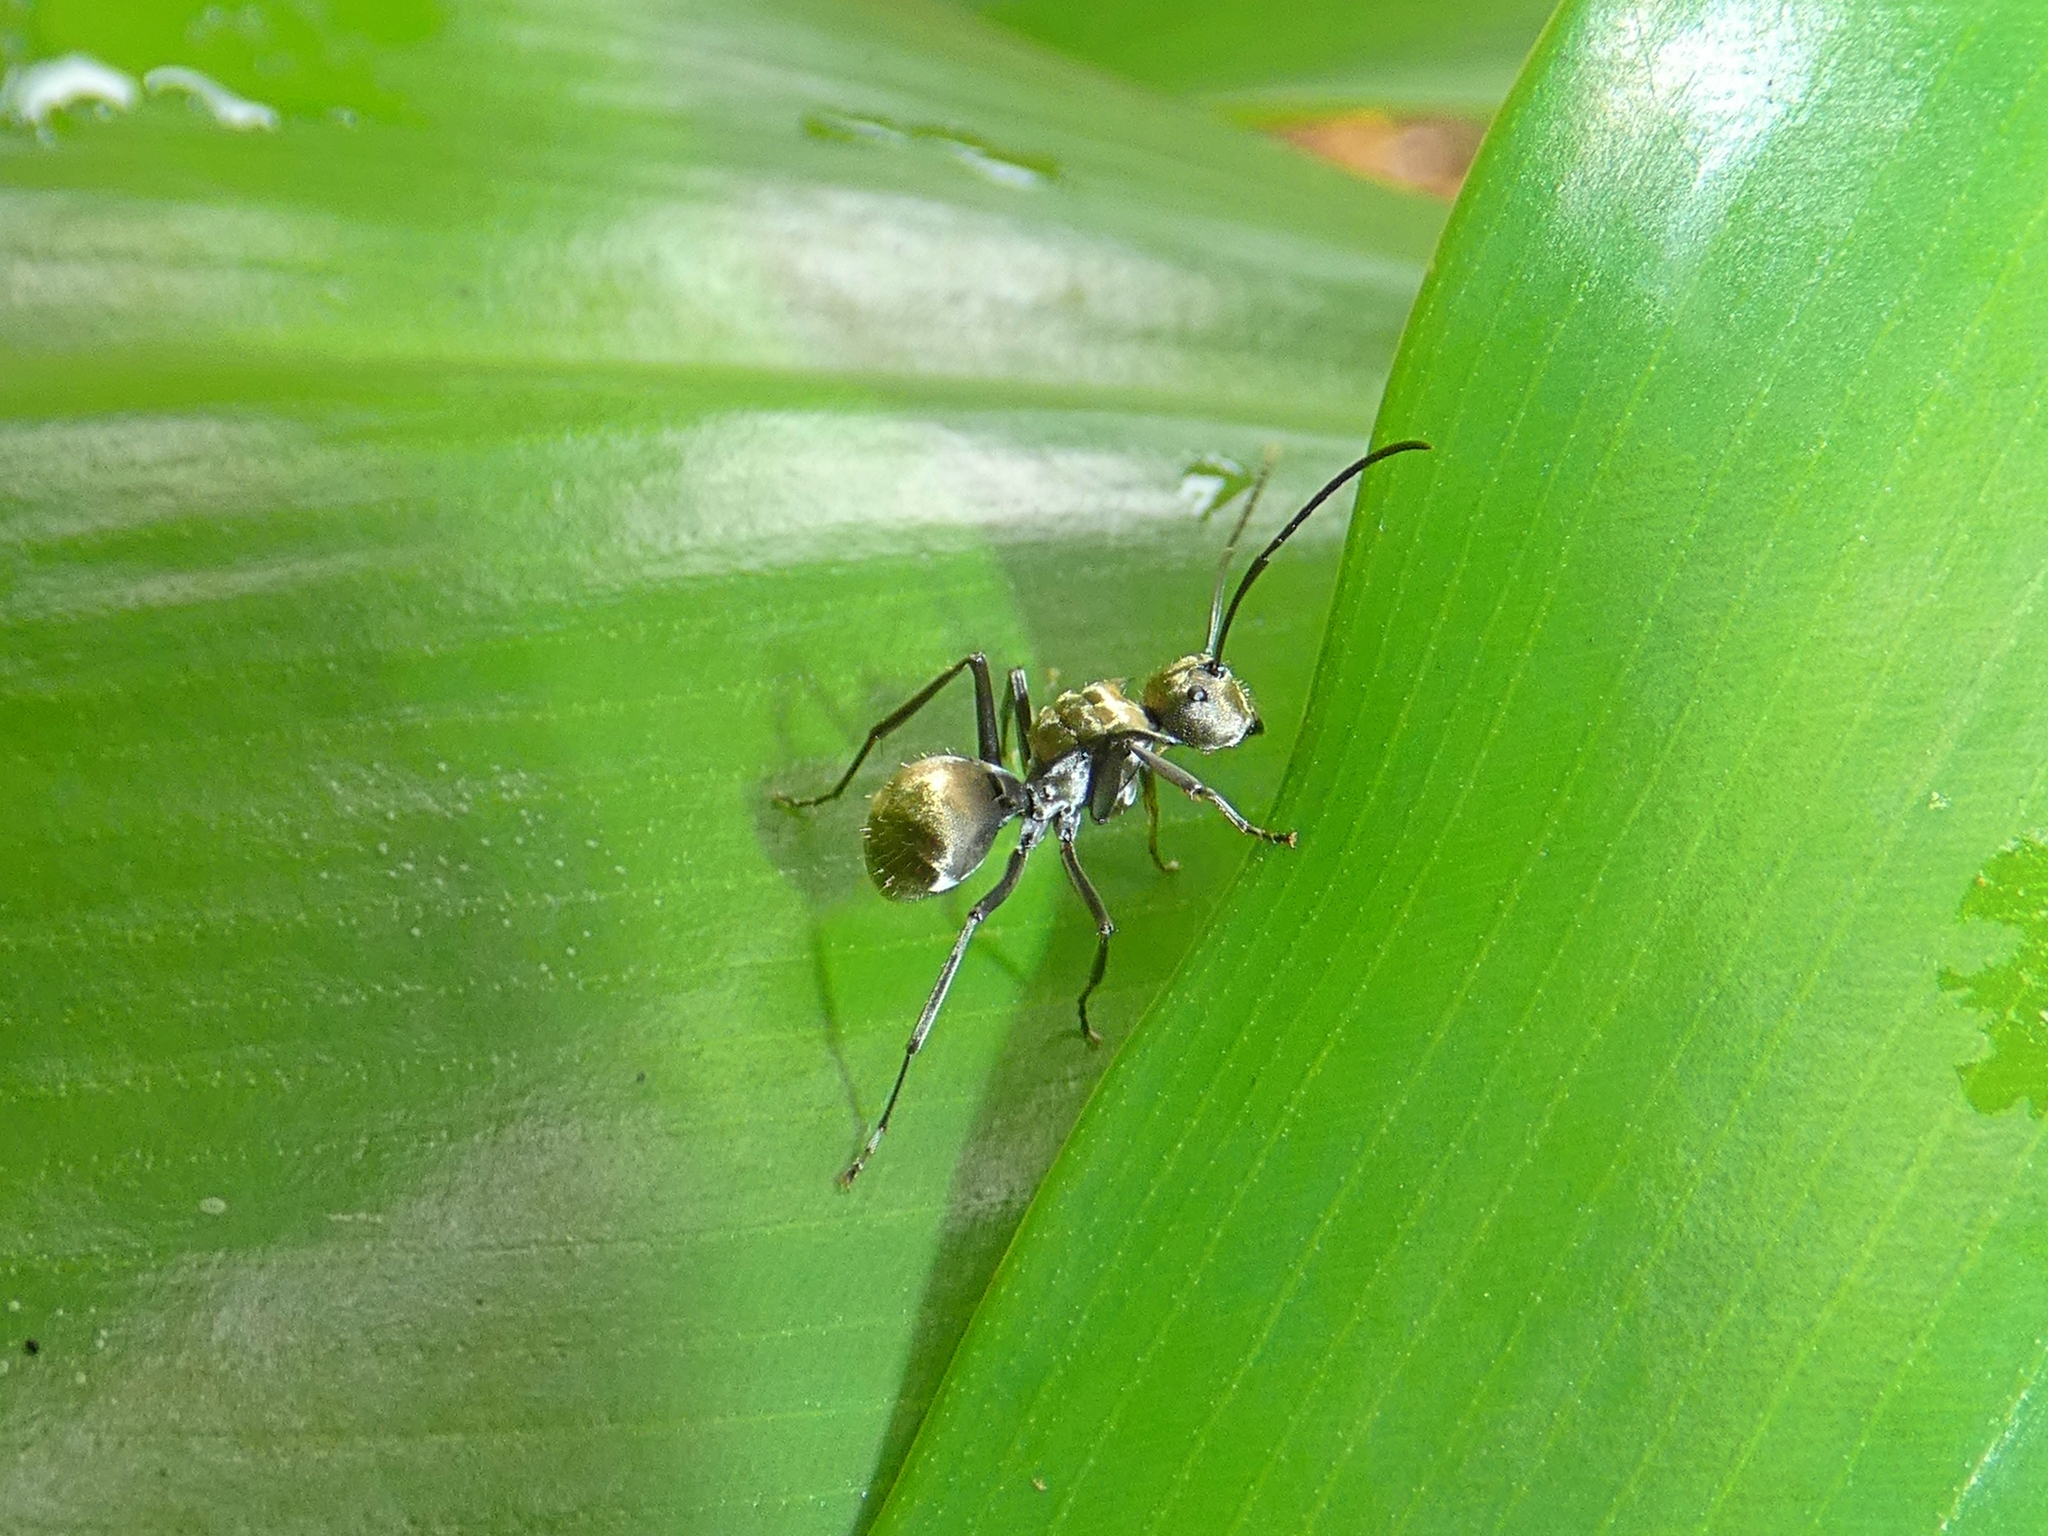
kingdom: Animalia
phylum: Arthropoda
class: Insecta
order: Hymenoptera
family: Formicidae
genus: Polyrhachis
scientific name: Polyrhachis foreli
